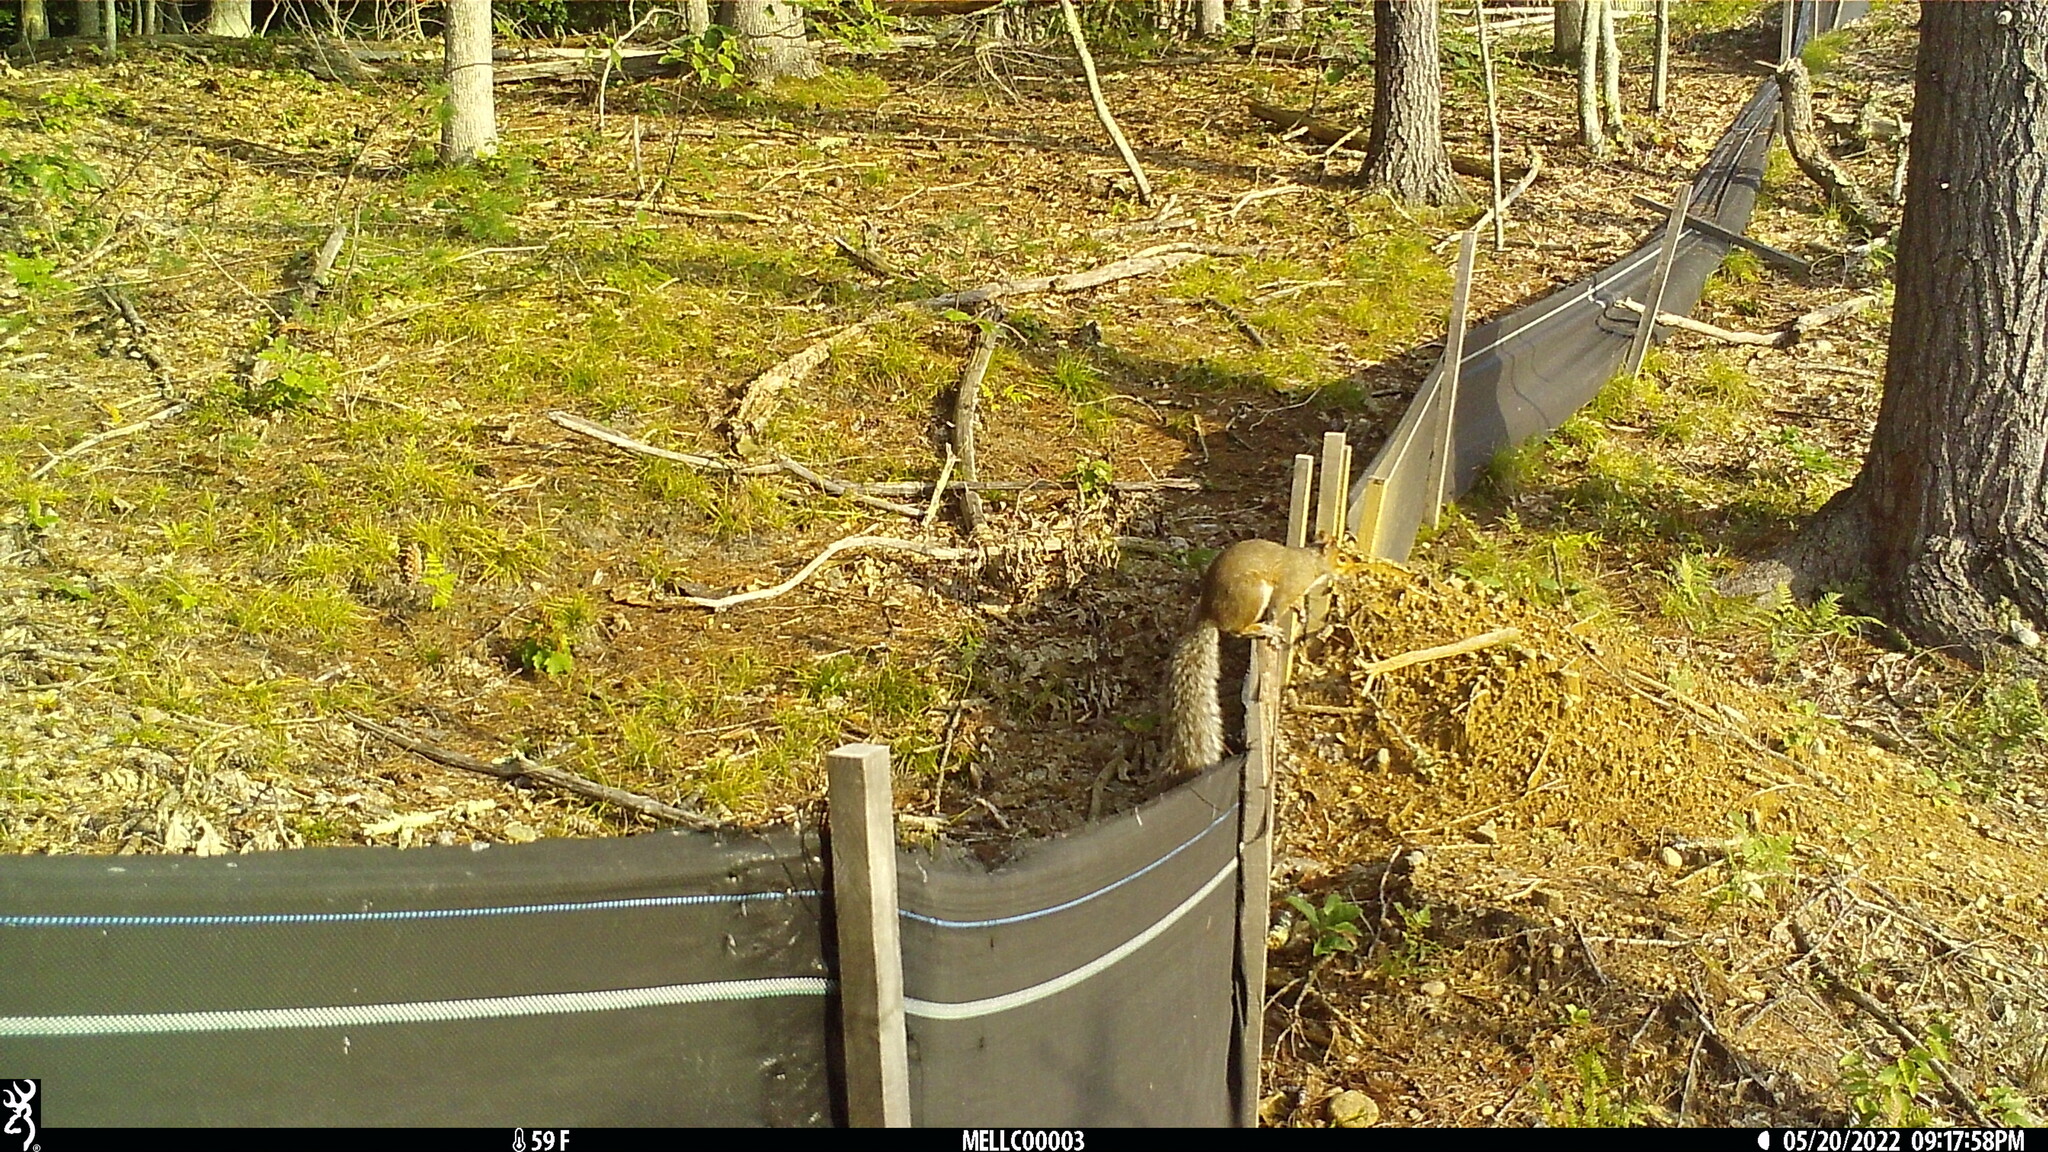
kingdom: Animalia
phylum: Chordata
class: Mammalia
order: Rodentia
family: Sciuridae
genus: Sciurus
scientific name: Sciurus carolinensis
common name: Eastern gray squirrel
